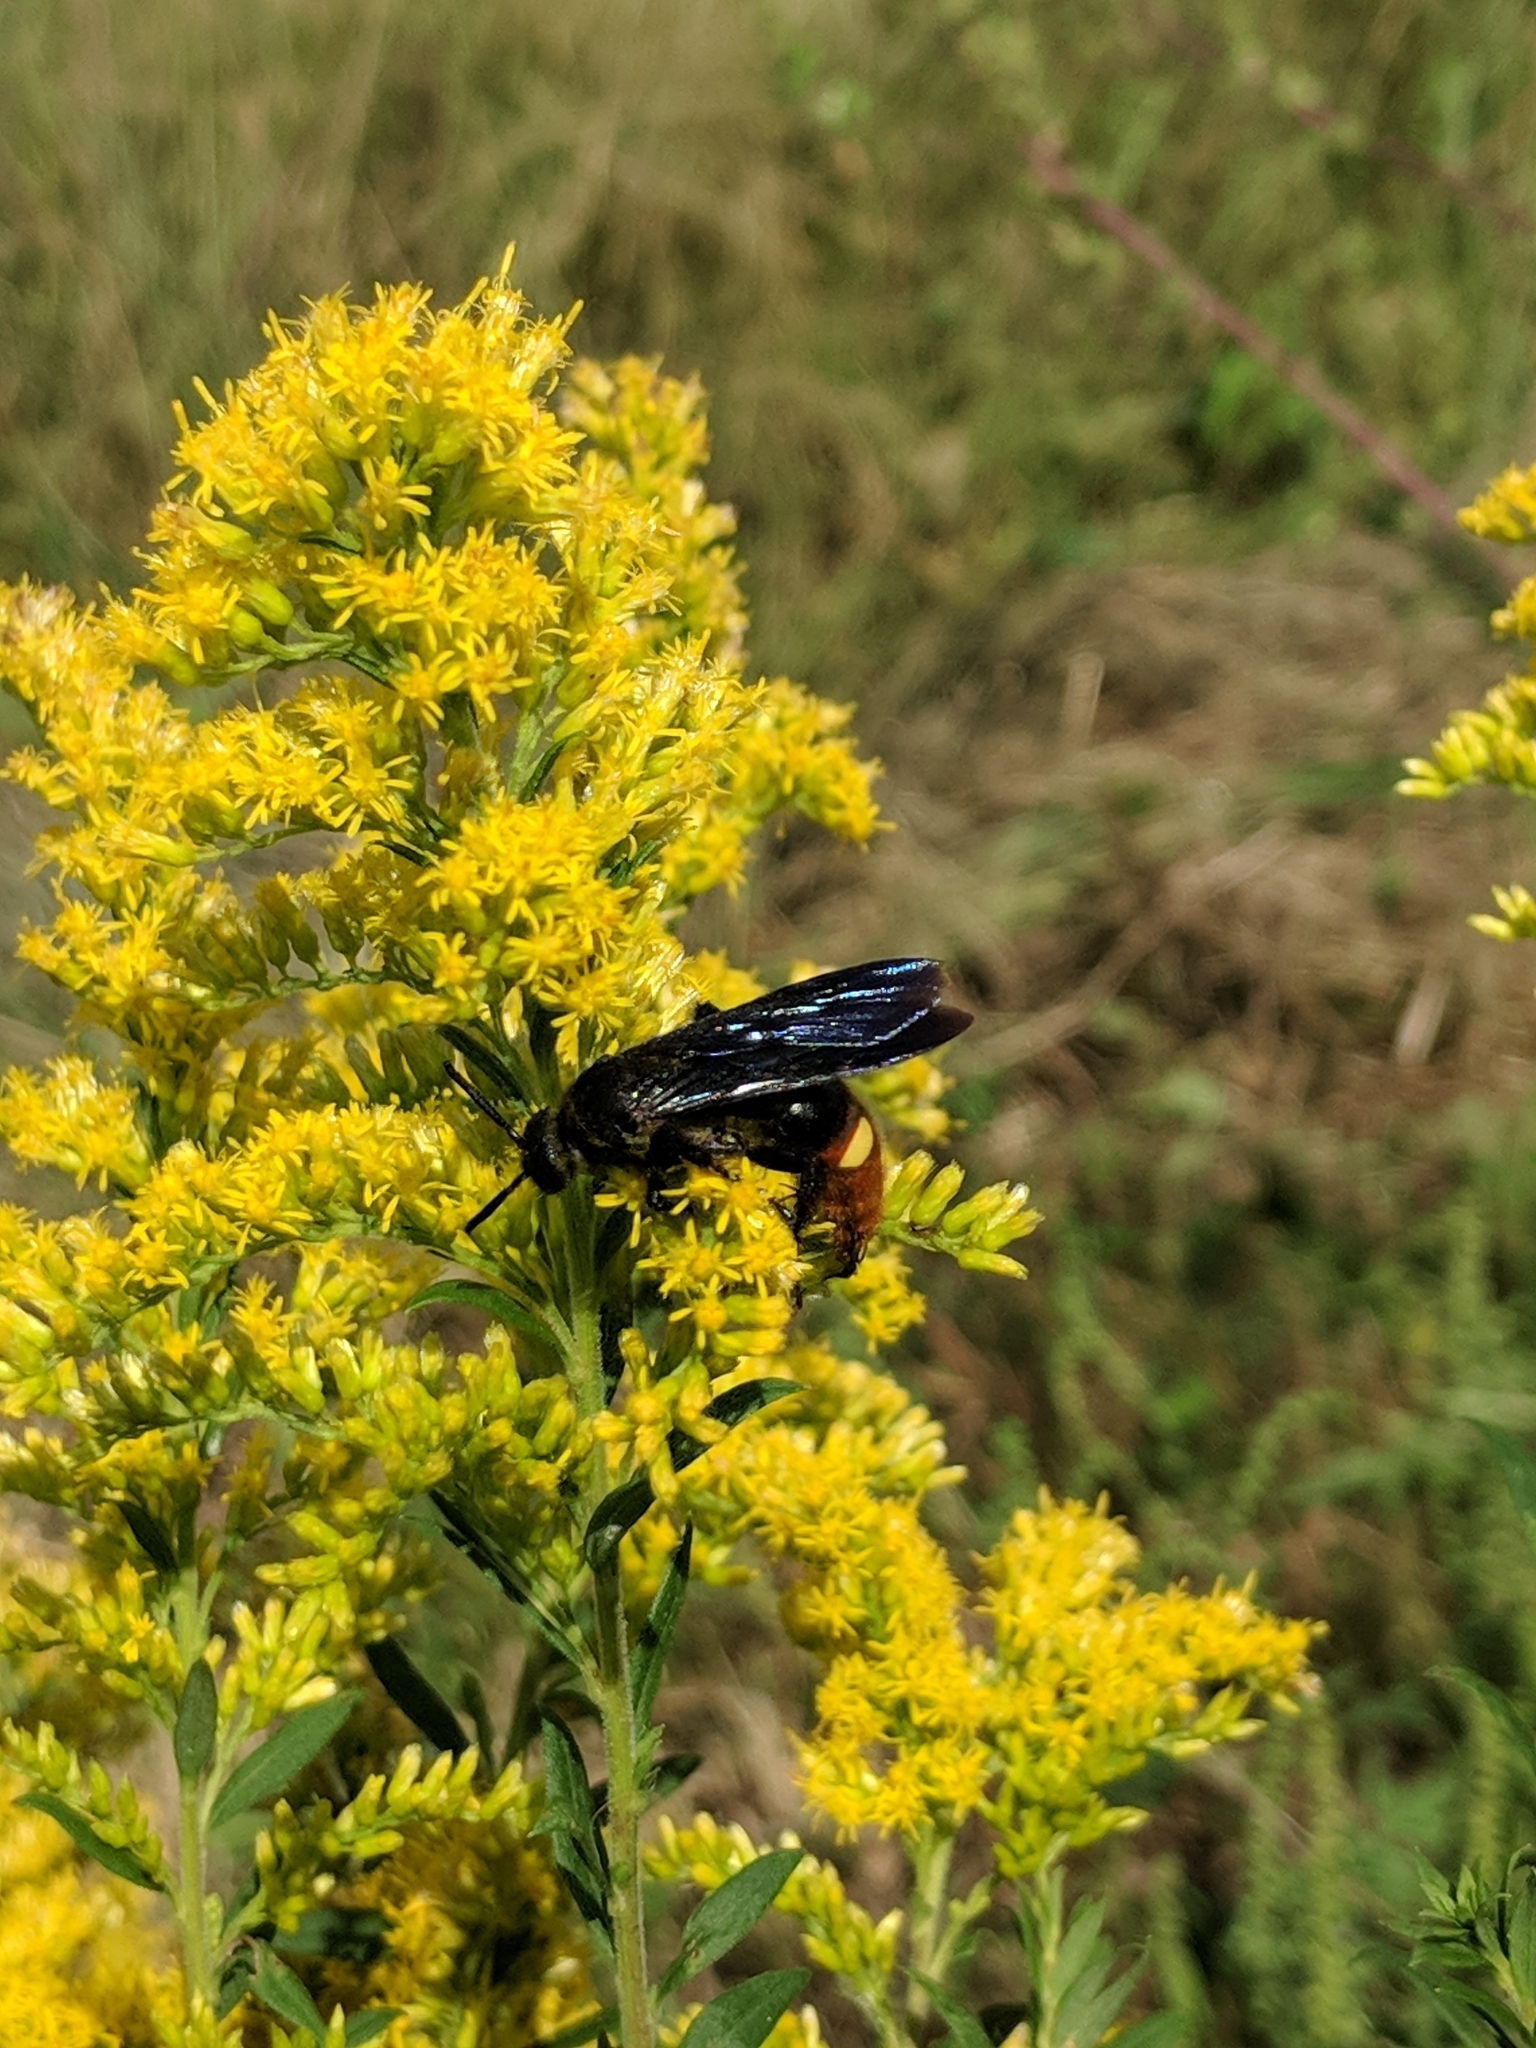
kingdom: Animalia
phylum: Arthropoda
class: Insecta
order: Hymenoptera
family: Scoliidae
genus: Scolia
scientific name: Scolia dubia
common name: Blue-winged scoliid wasp
